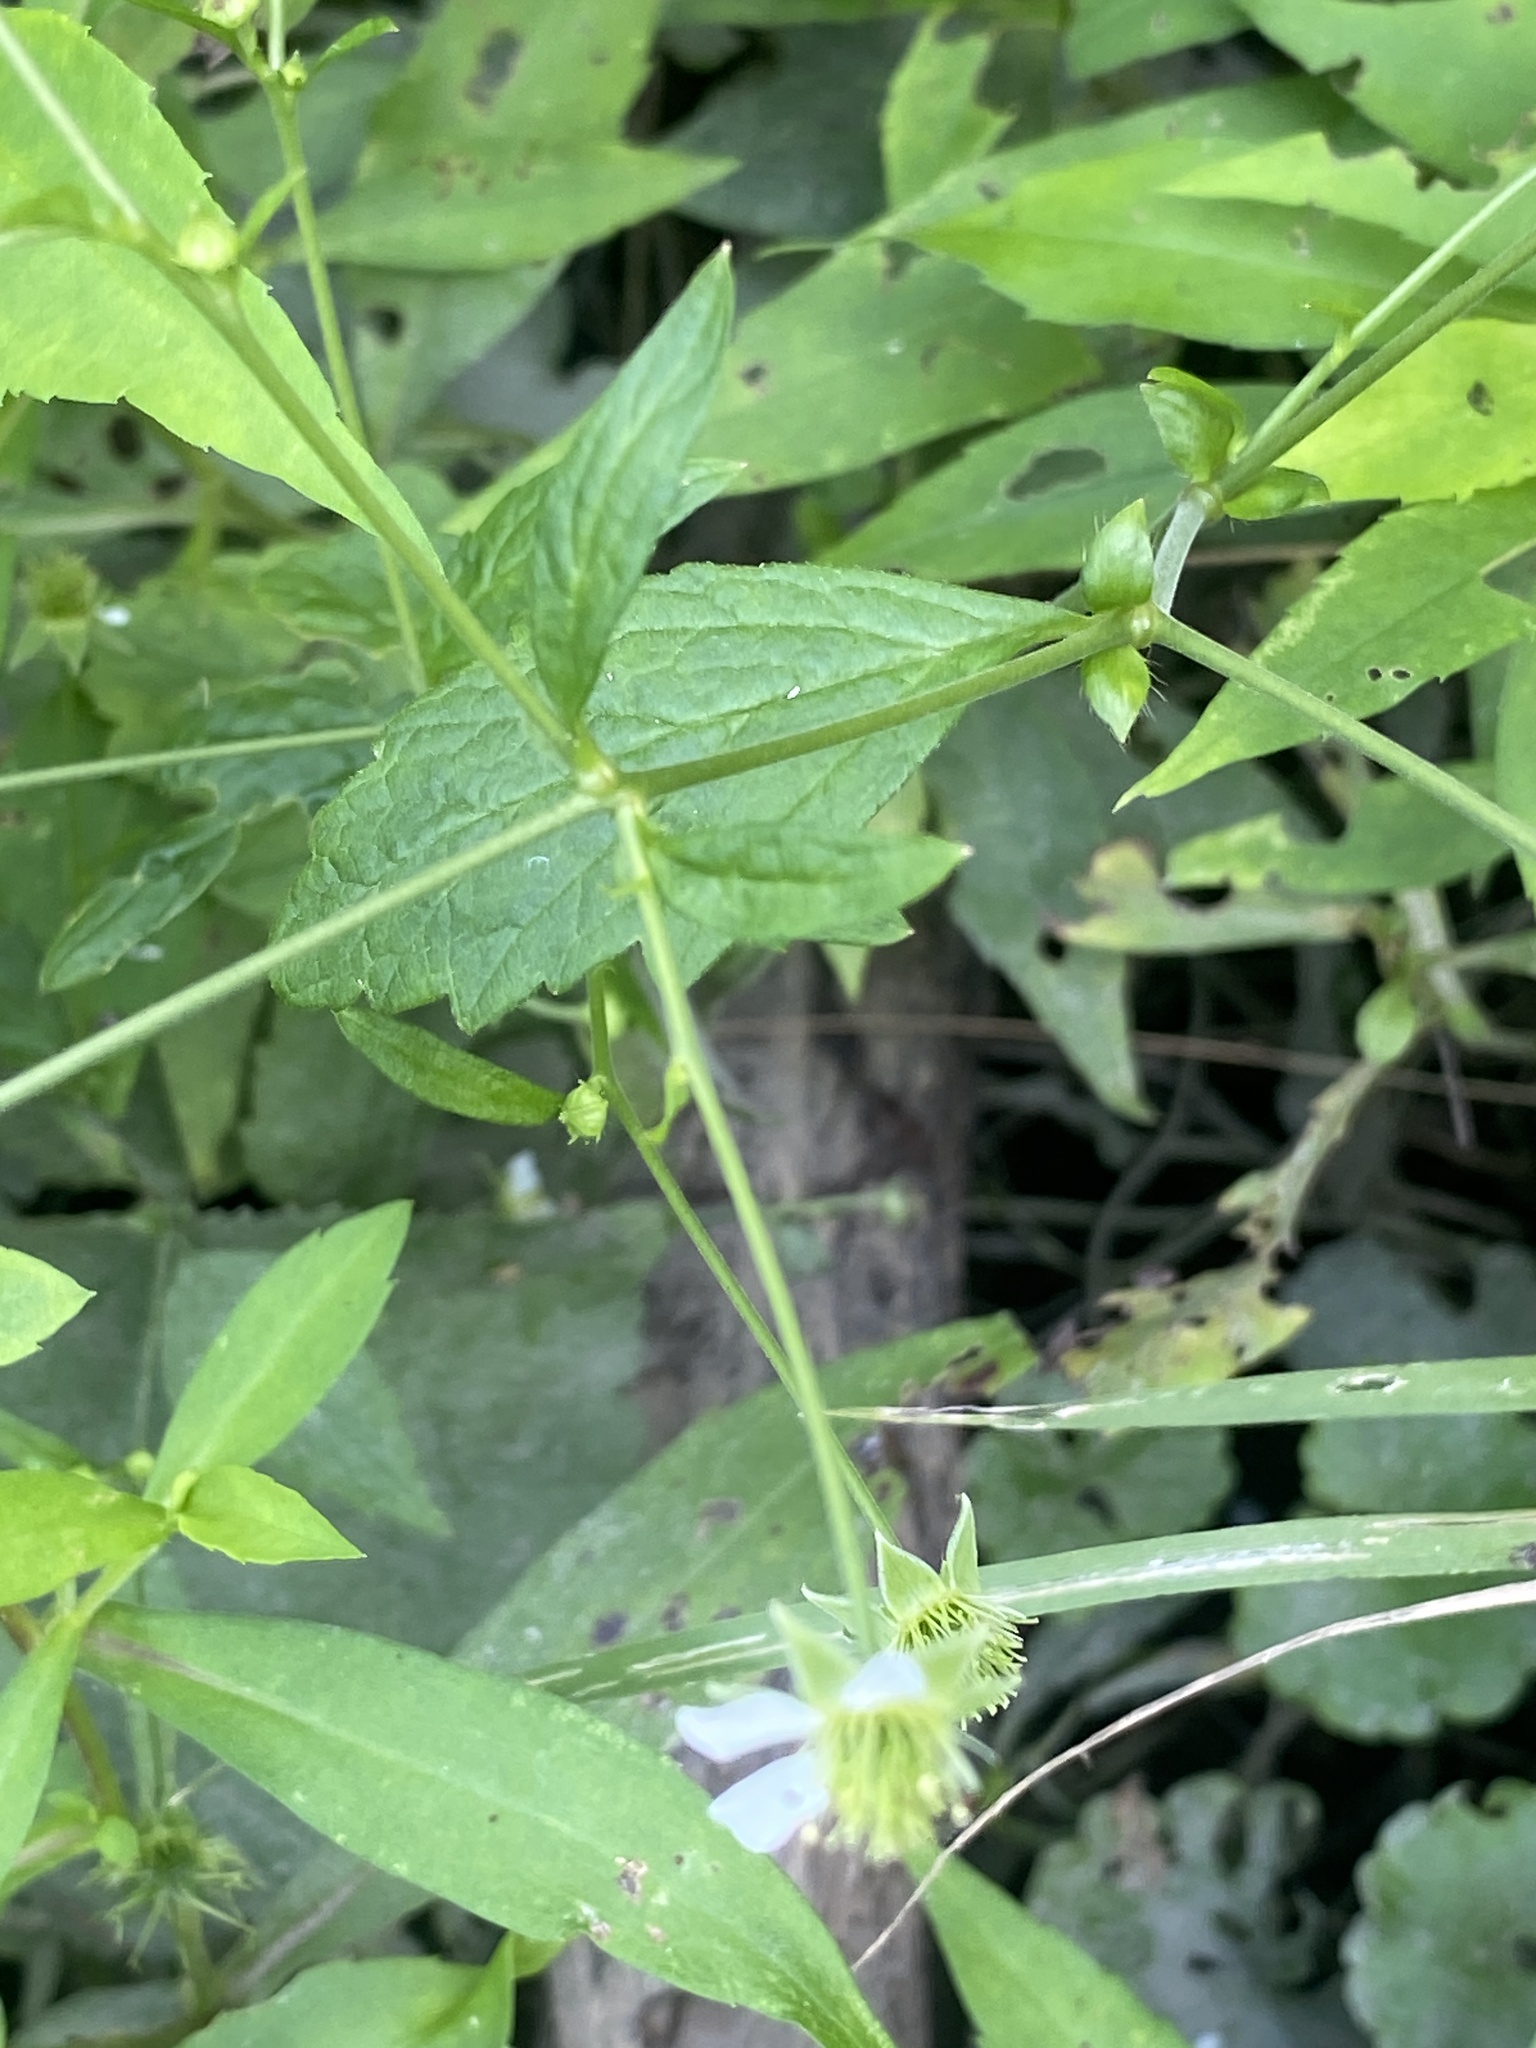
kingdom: Plantae
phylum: Tracheophyta
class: Magnoliopsida
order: Rosales
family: Rosaceae
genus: Geum
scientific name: Geum canadense
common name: White avens
